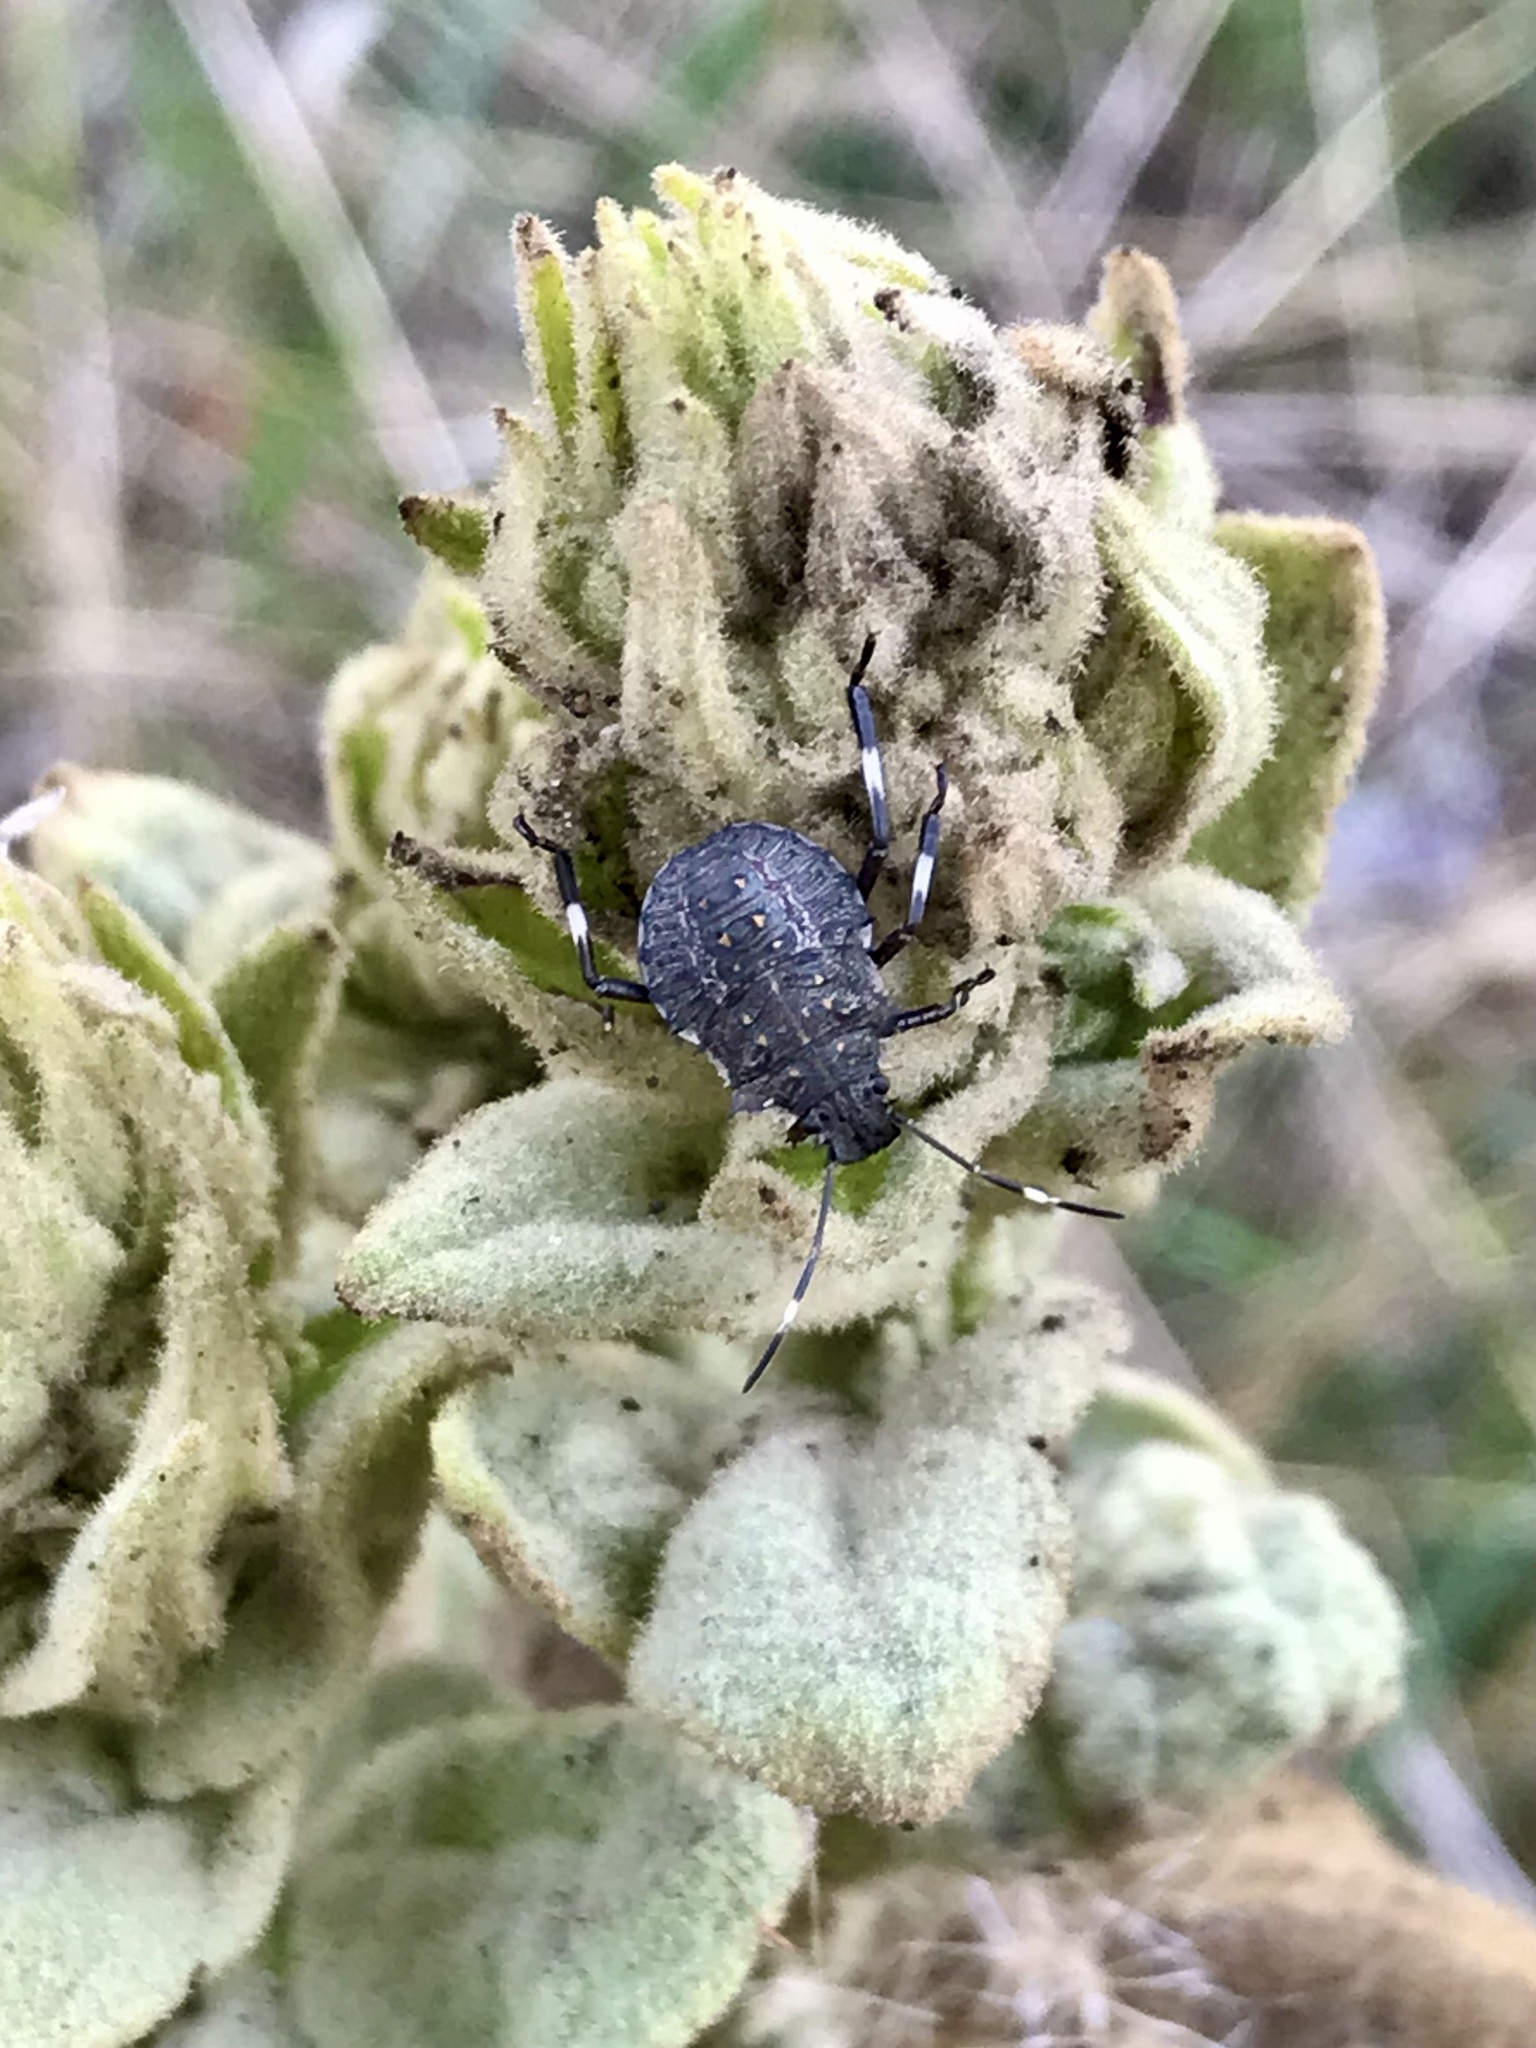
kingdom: Animalia
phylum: Arthropoda
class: Insecta
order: Hemiptera
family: Pentatomidae
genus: Halyomorpha
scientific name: Halyomorpha halys
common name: Brown marmorated stink bug
